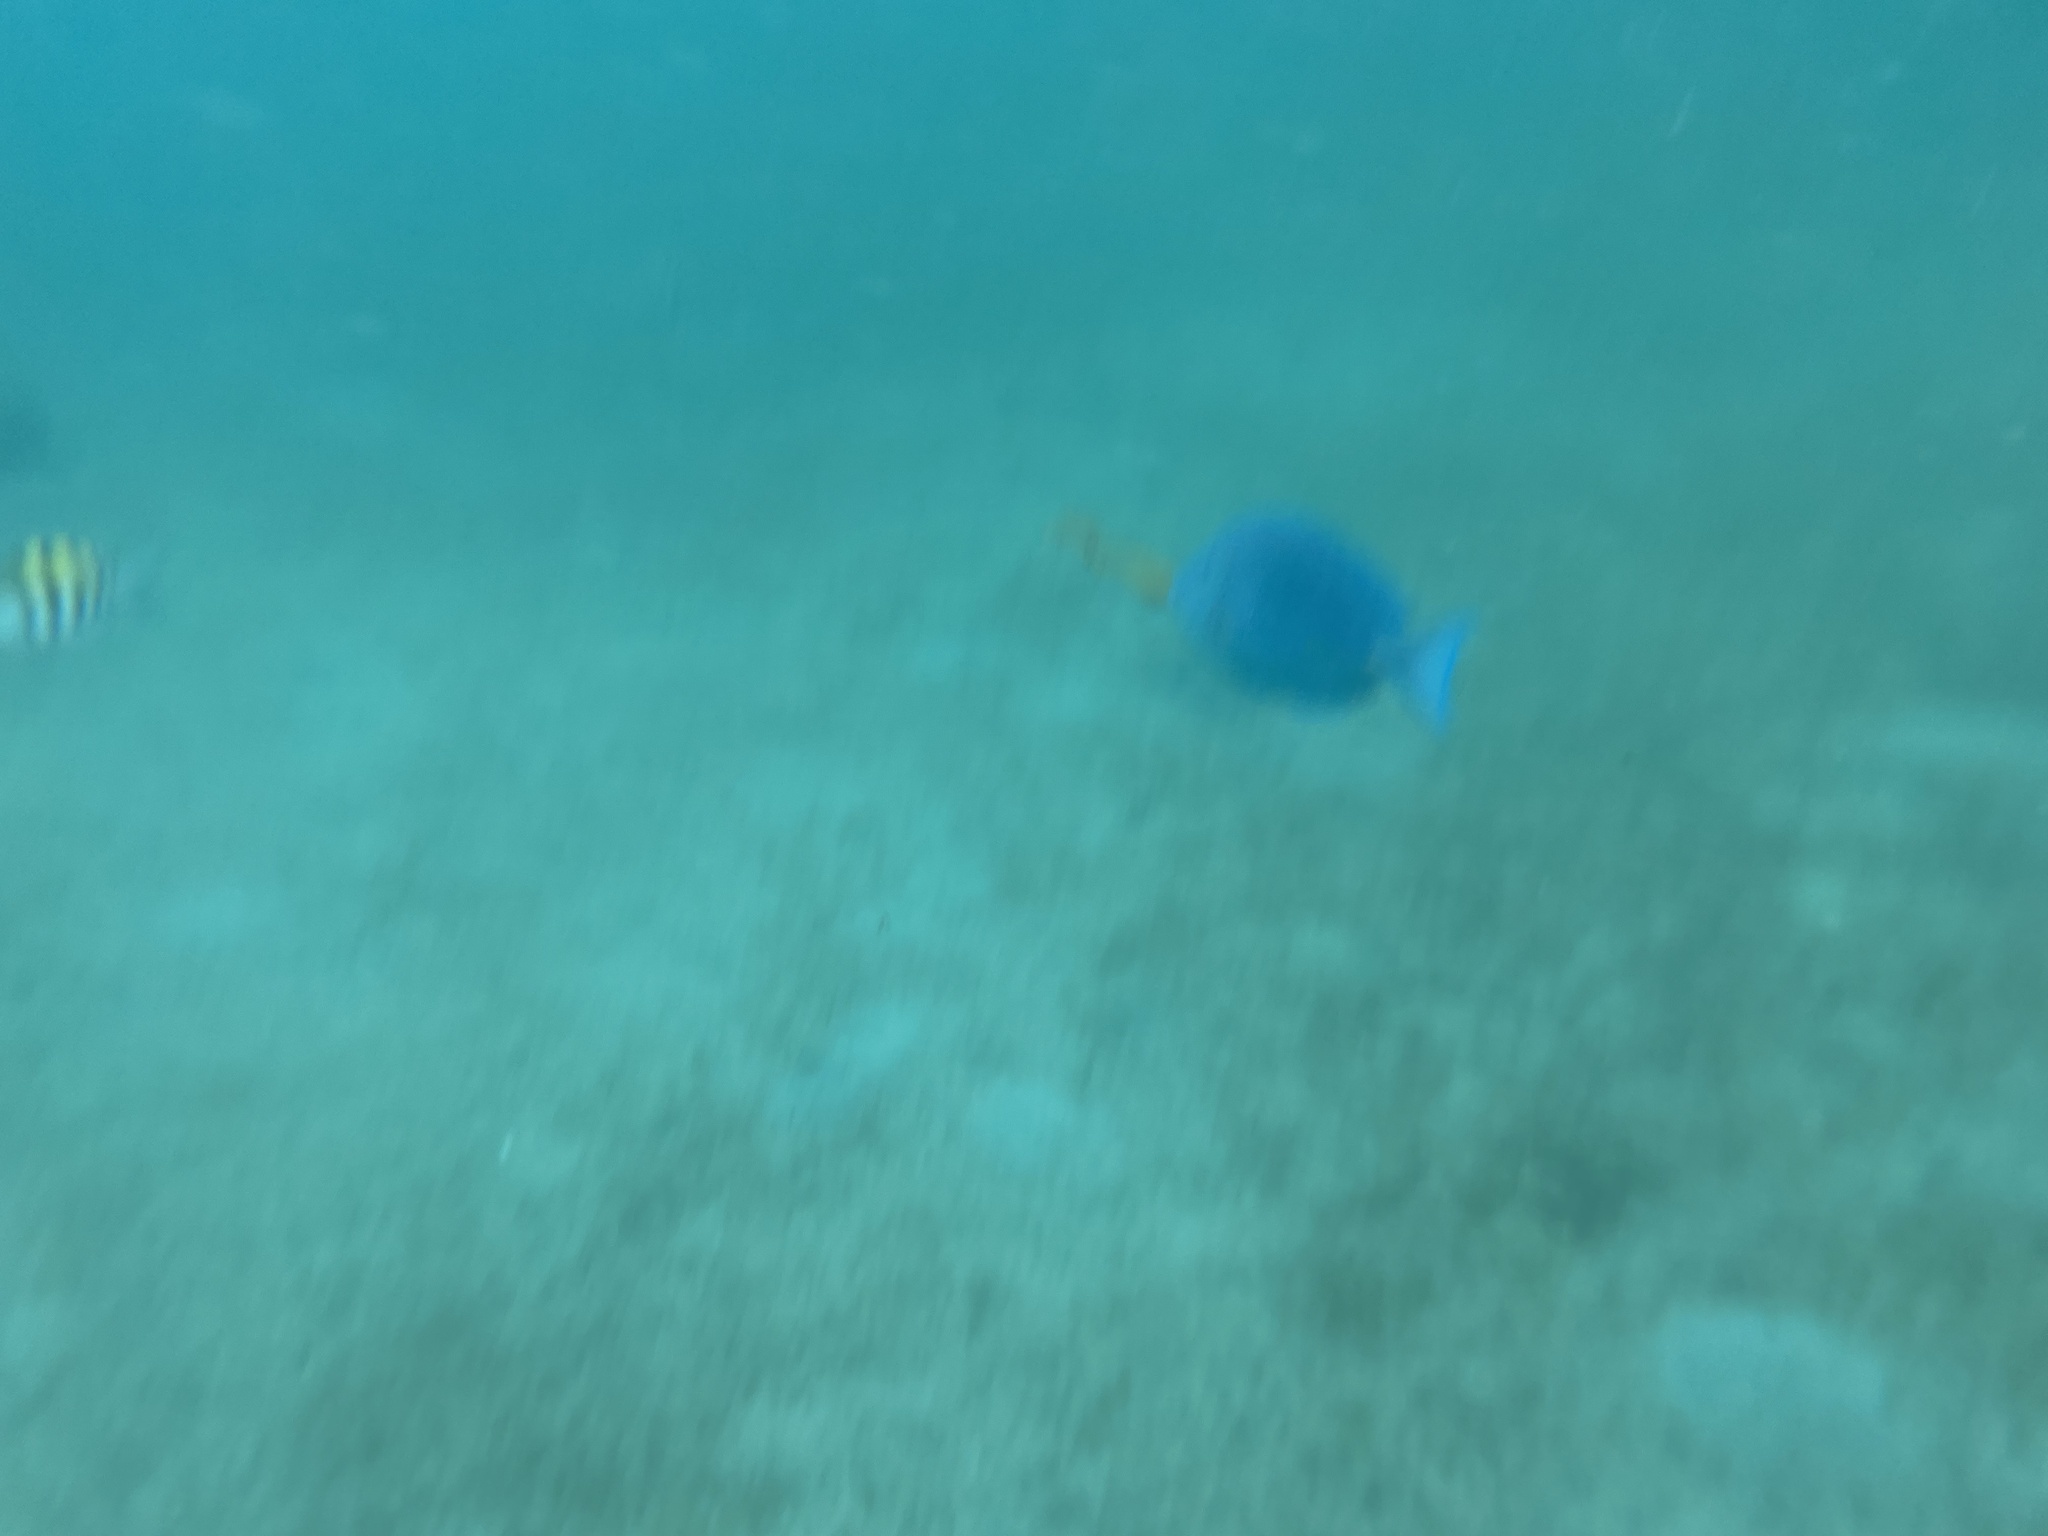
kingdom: Animalia
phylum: Chordata
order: Perciformes
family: Acanthuridae
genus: Acanthurus
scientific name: Acanthurus coeruleus
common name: Blue tang
